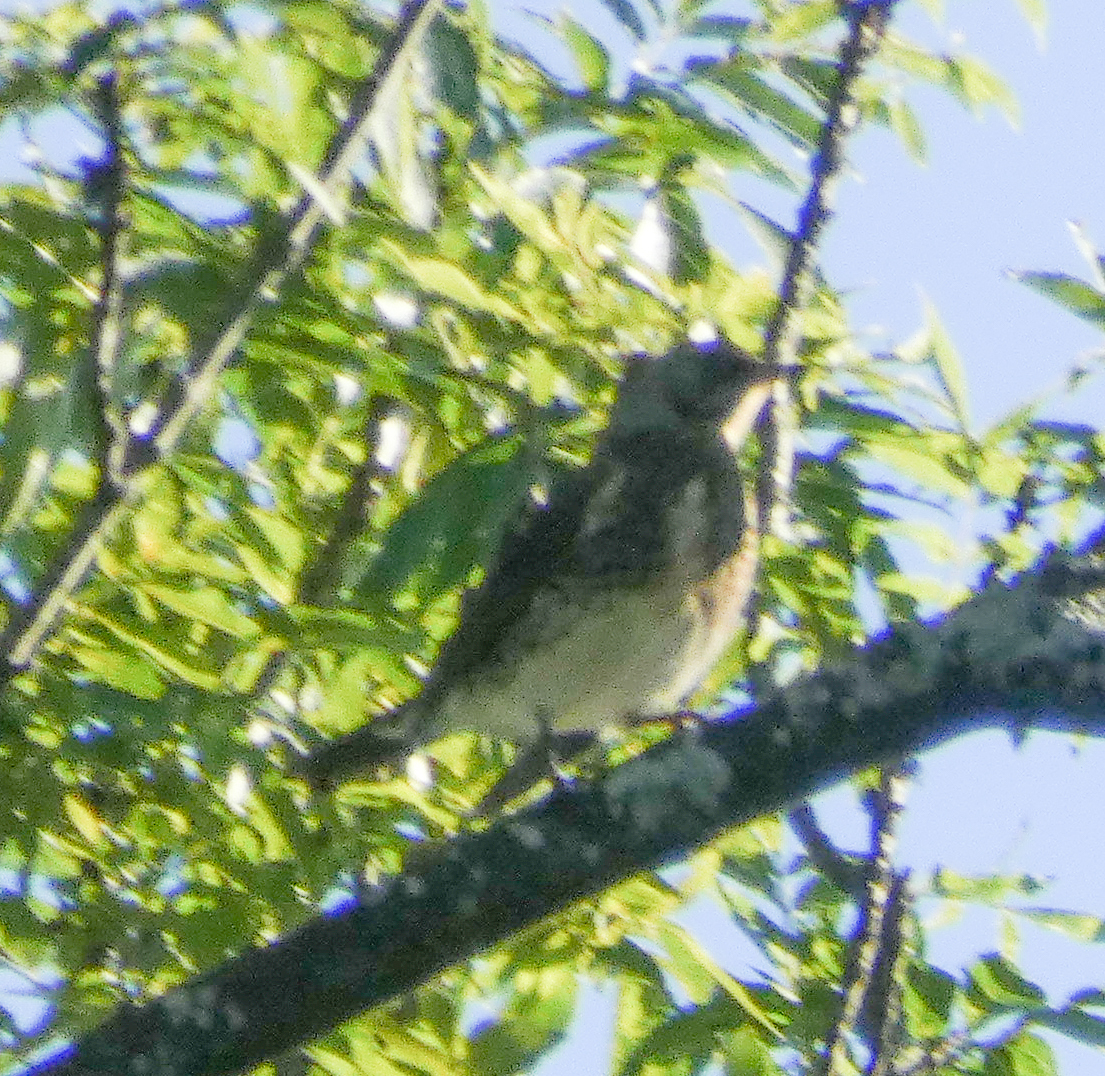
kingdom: Animalia
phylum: Chordata
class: Aves
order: Passeriformes
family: Turdidae
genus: Turdus
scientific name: Turdus pilaris
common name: Fieldfare
